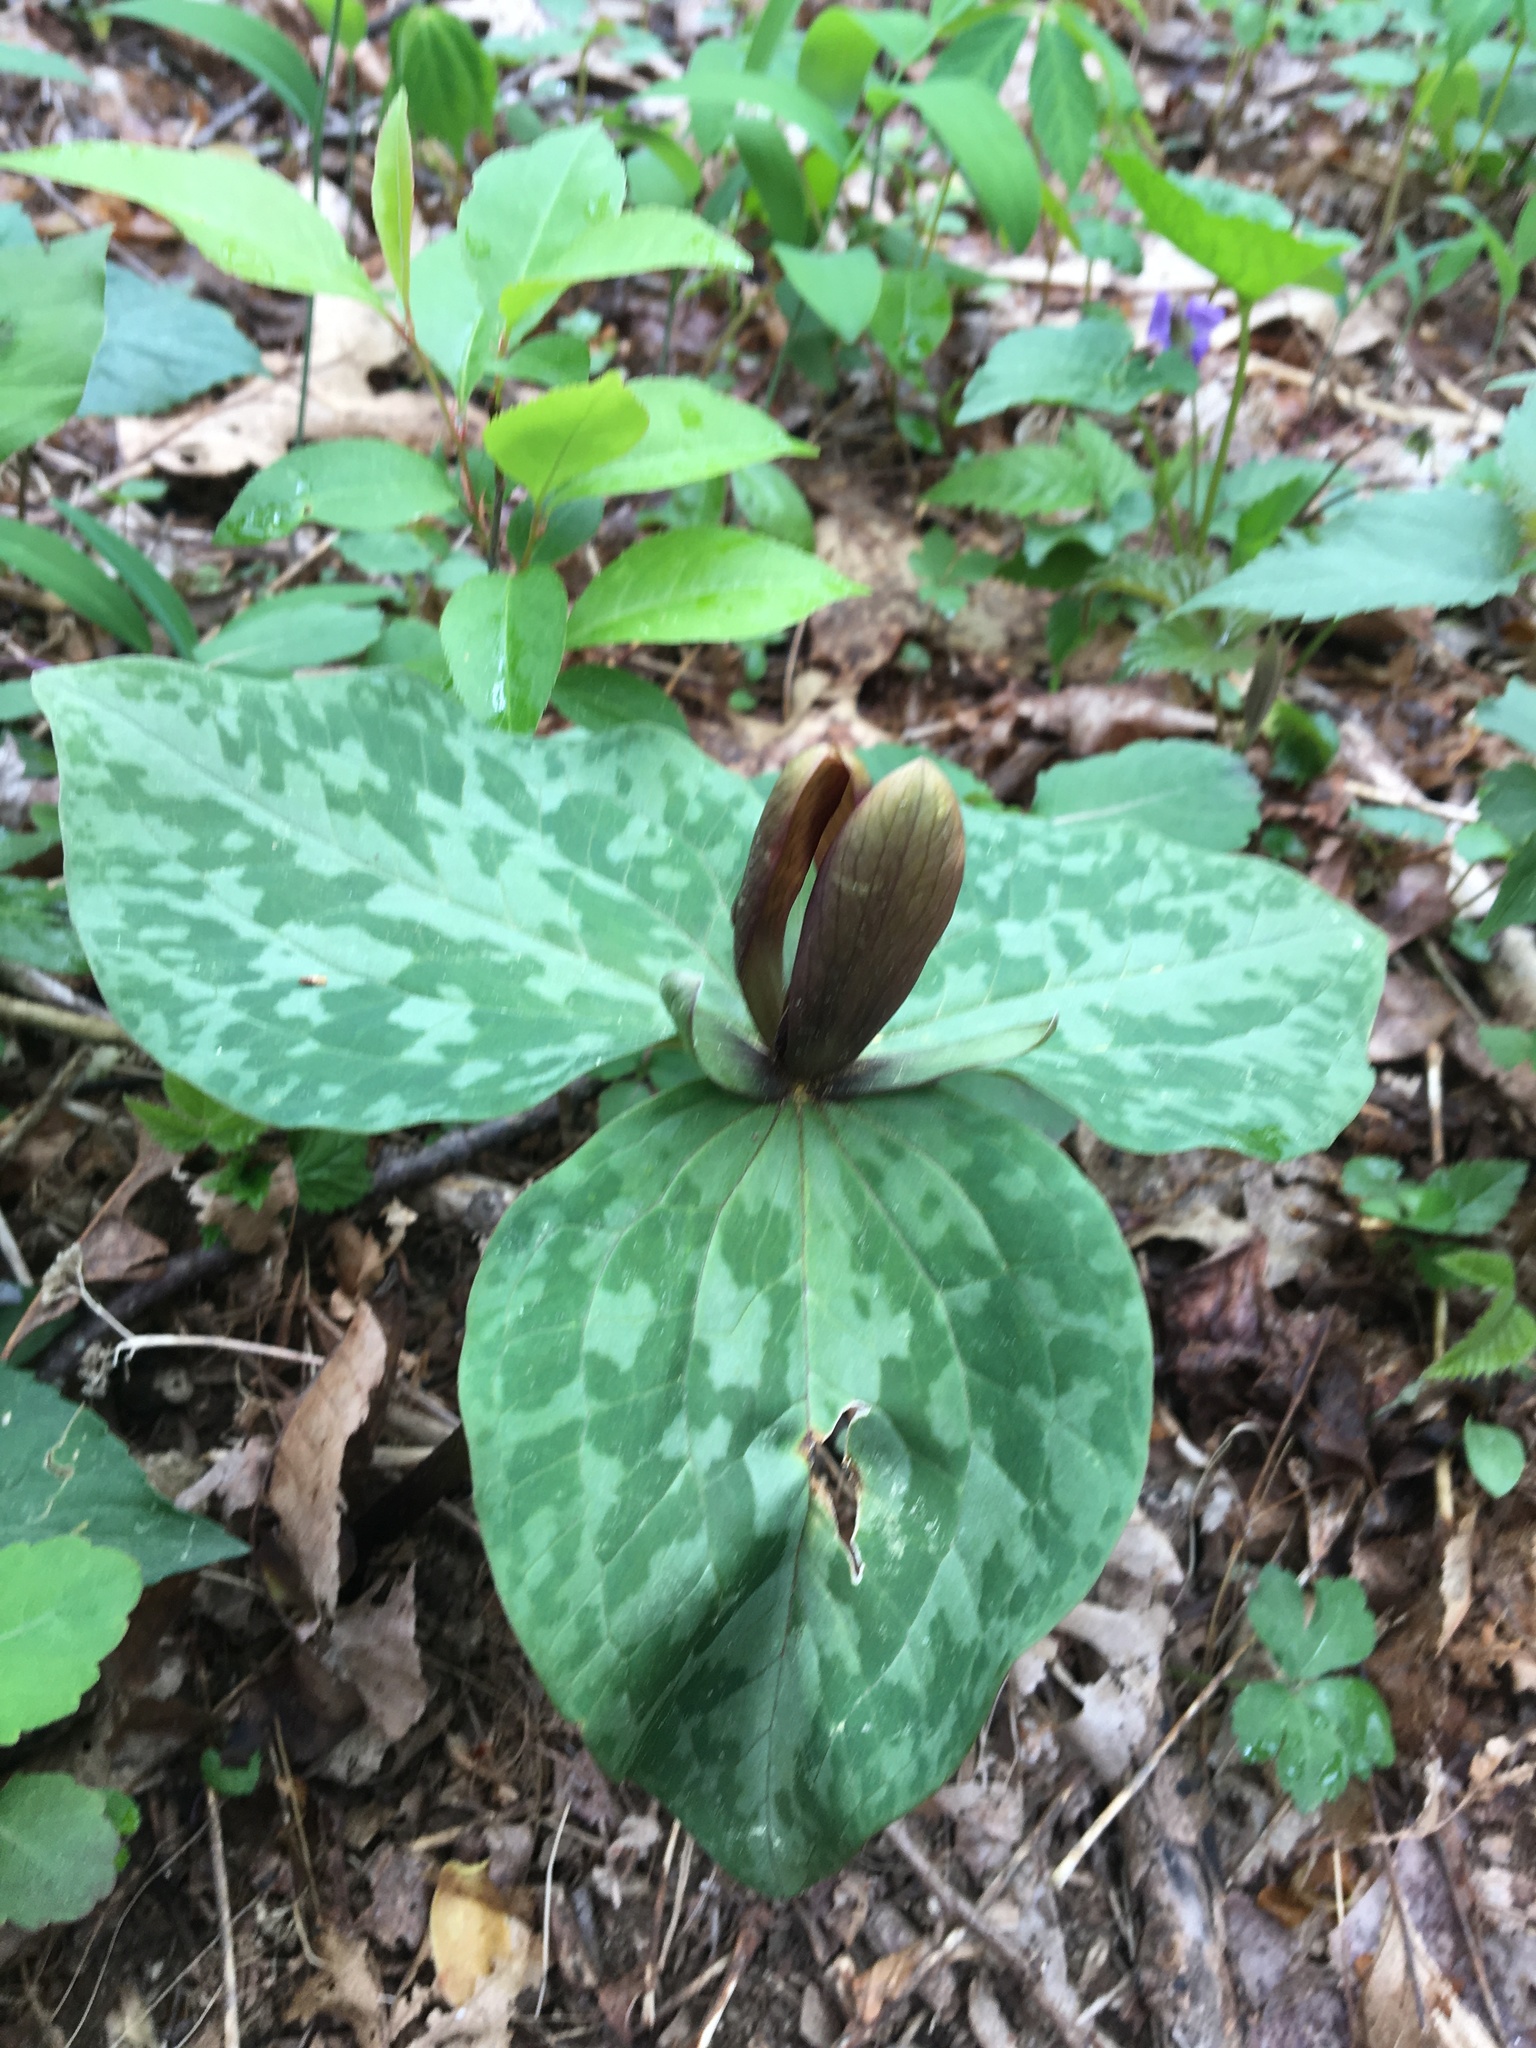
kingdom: Plantae
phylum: Tracheophyta
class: Liliopsida
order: Liliales
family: Melanthiaceae
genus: Trillium
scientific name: Trillium cuneatum
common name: Cuneate trillium
